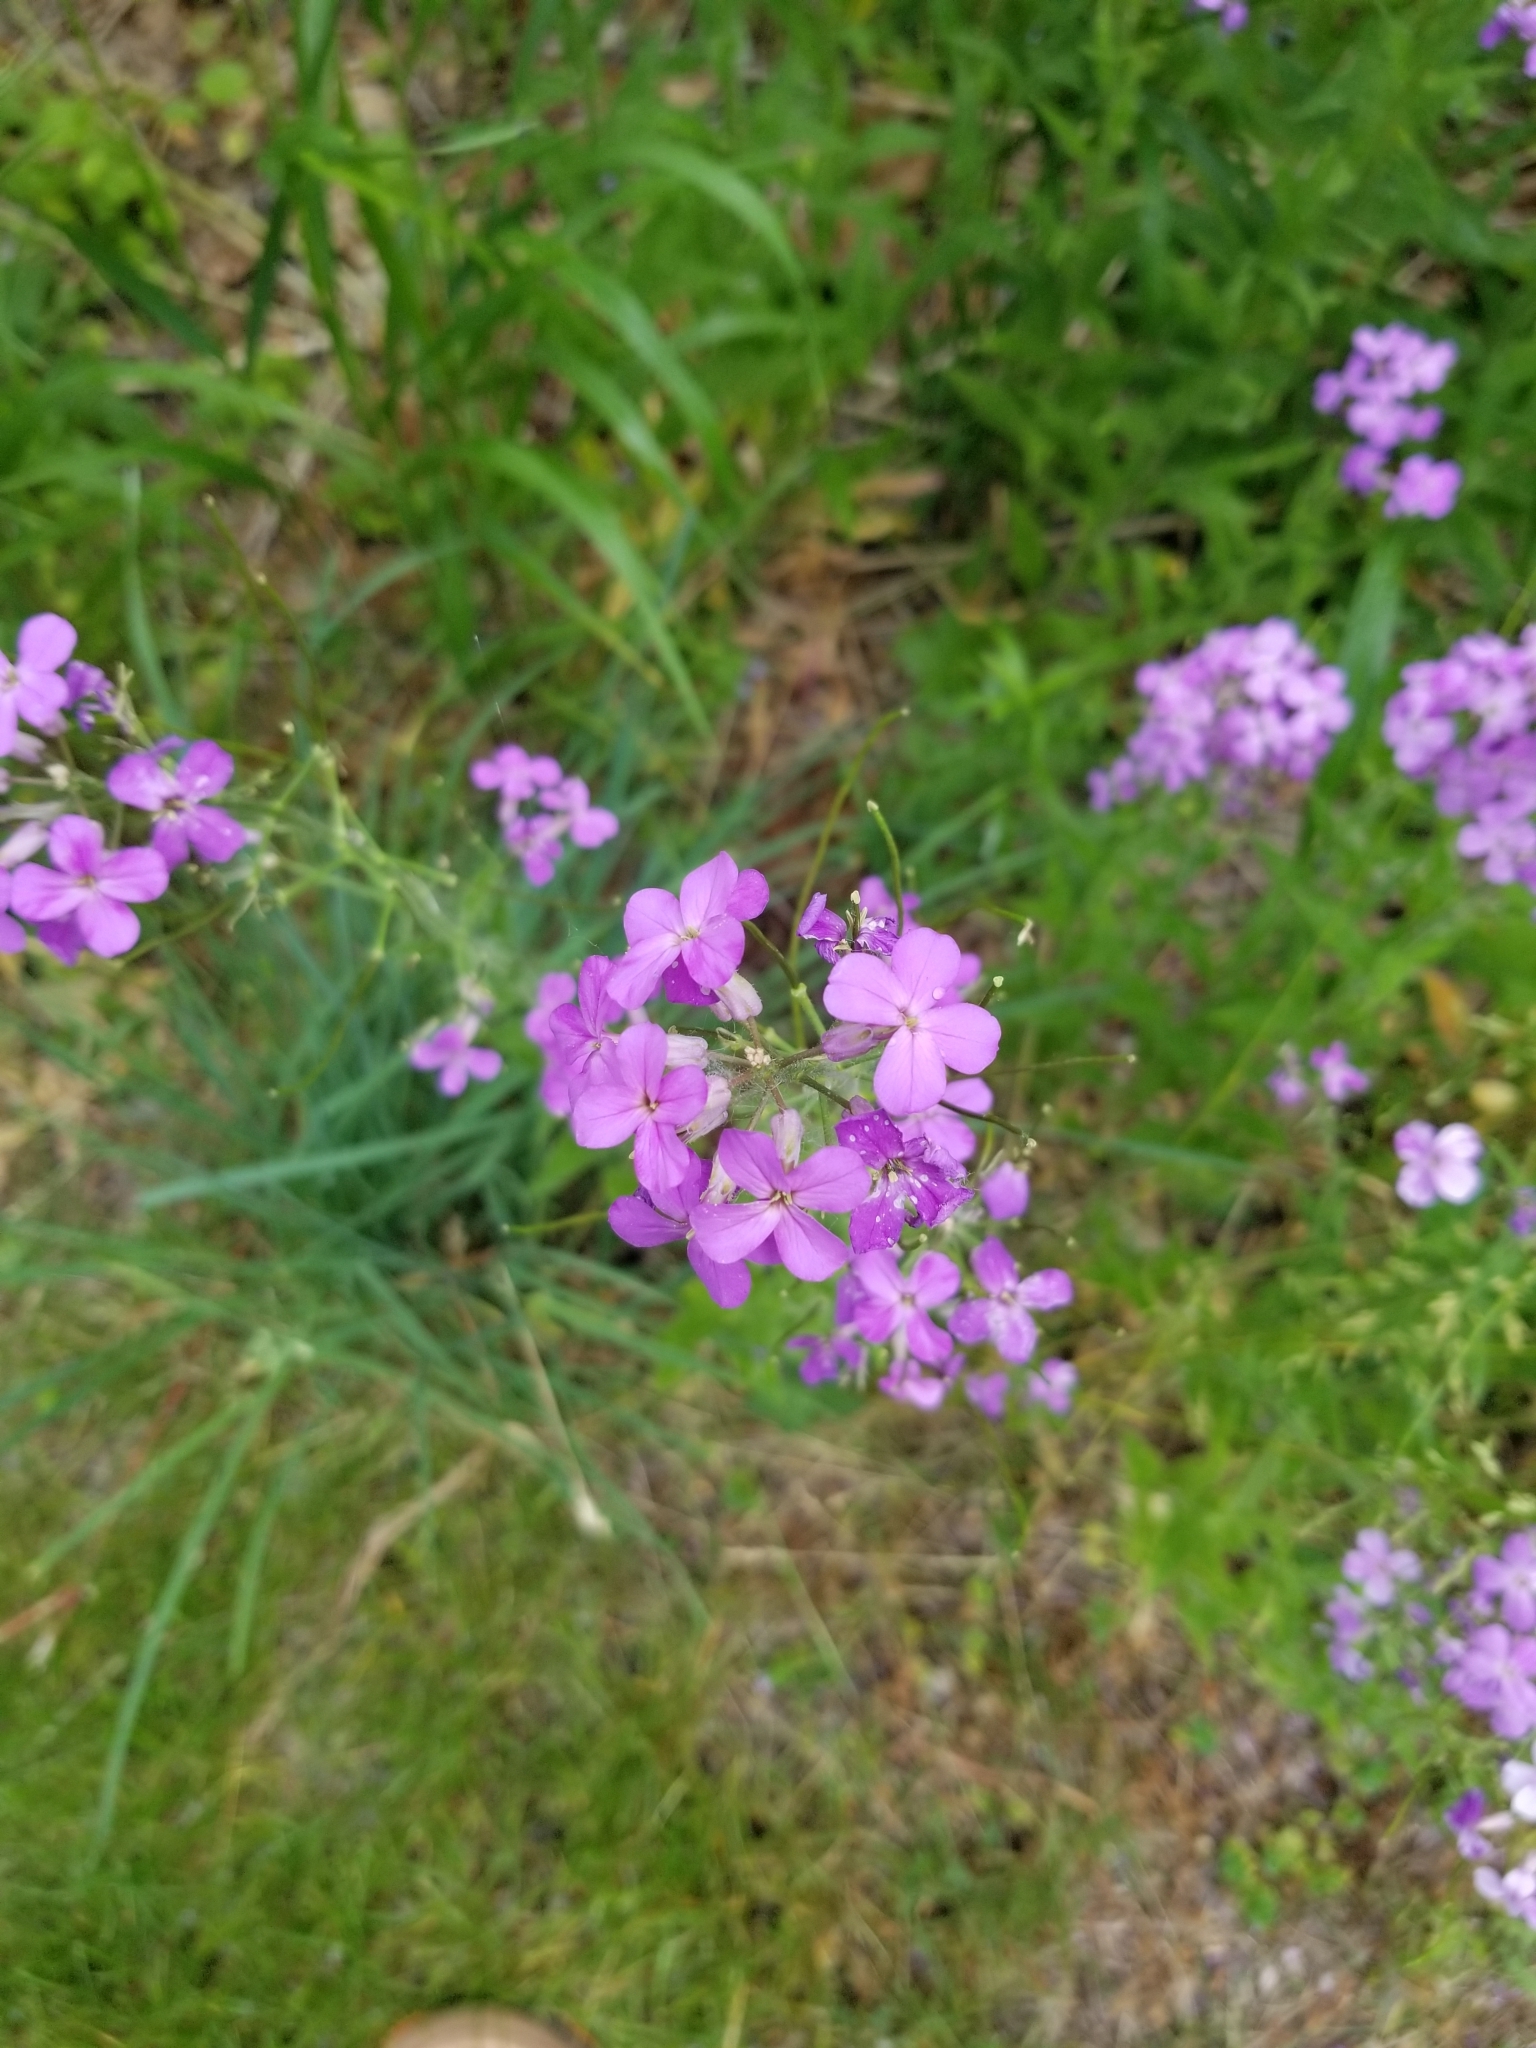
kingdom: Plantae
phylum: Tracheophyta
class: Magnoliopsida
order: Brassicales
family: Brassicaceae
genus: Hesperis
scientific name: Hesperis matronalis
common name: Dame's-violet
